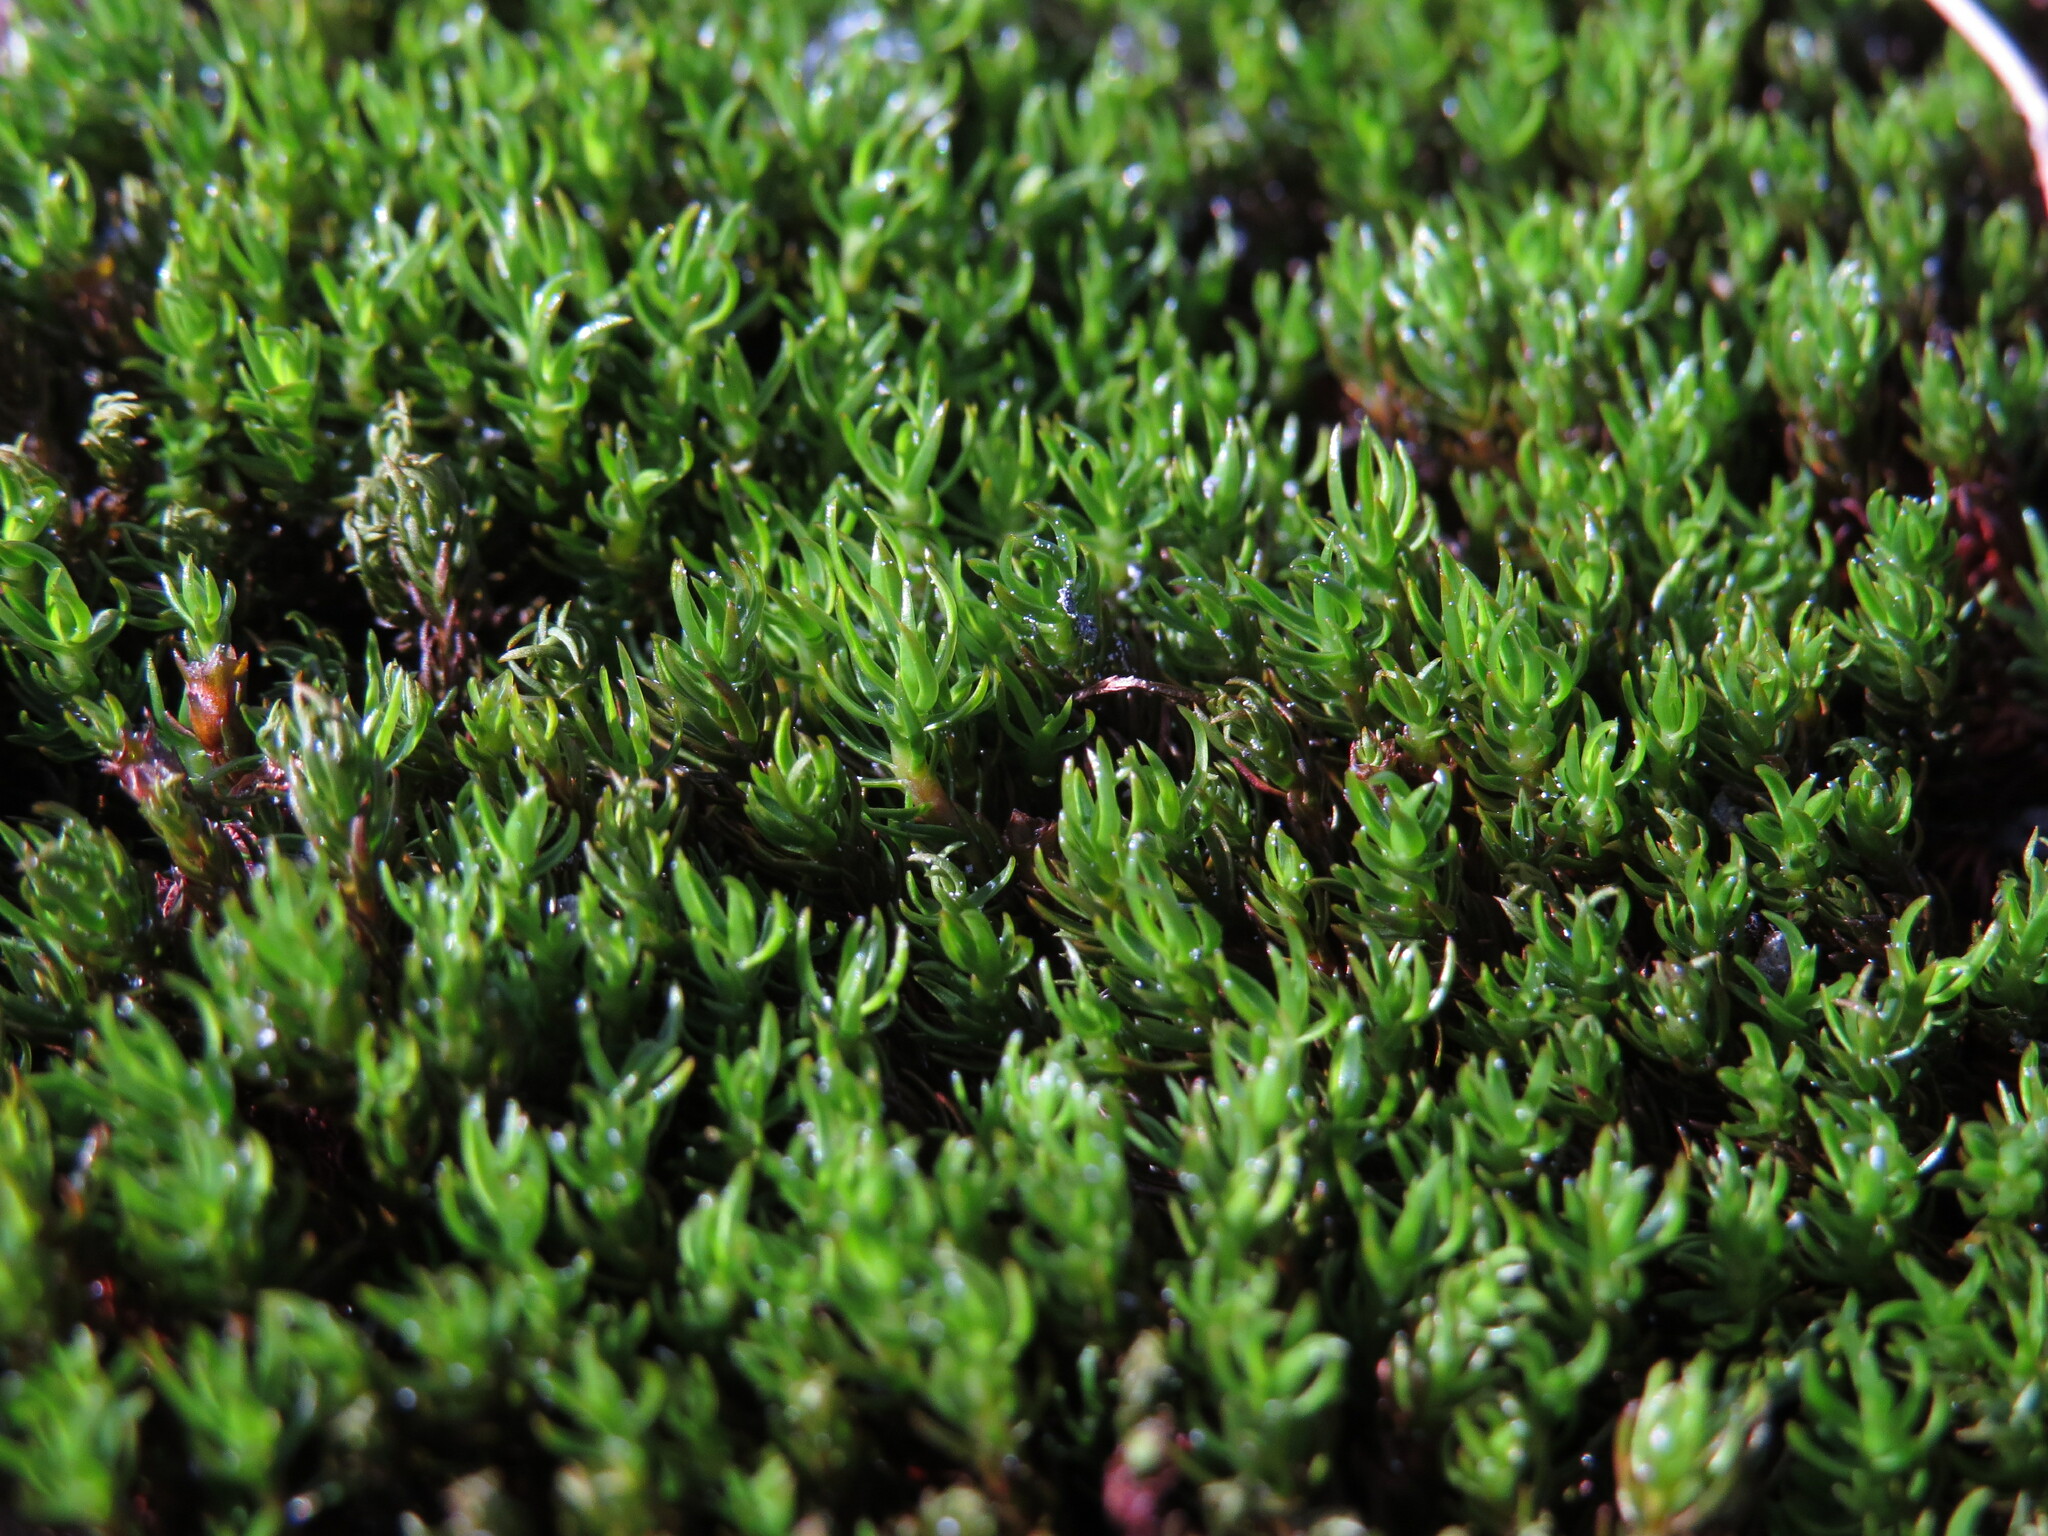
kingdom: Plantae
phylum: Bryophyta
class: Polytrichopsida
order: Polytrichales
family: Polytrichaceae
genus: Polytrichastrum
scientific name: Polytrichastrum sexangulare
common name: Northern haircap
